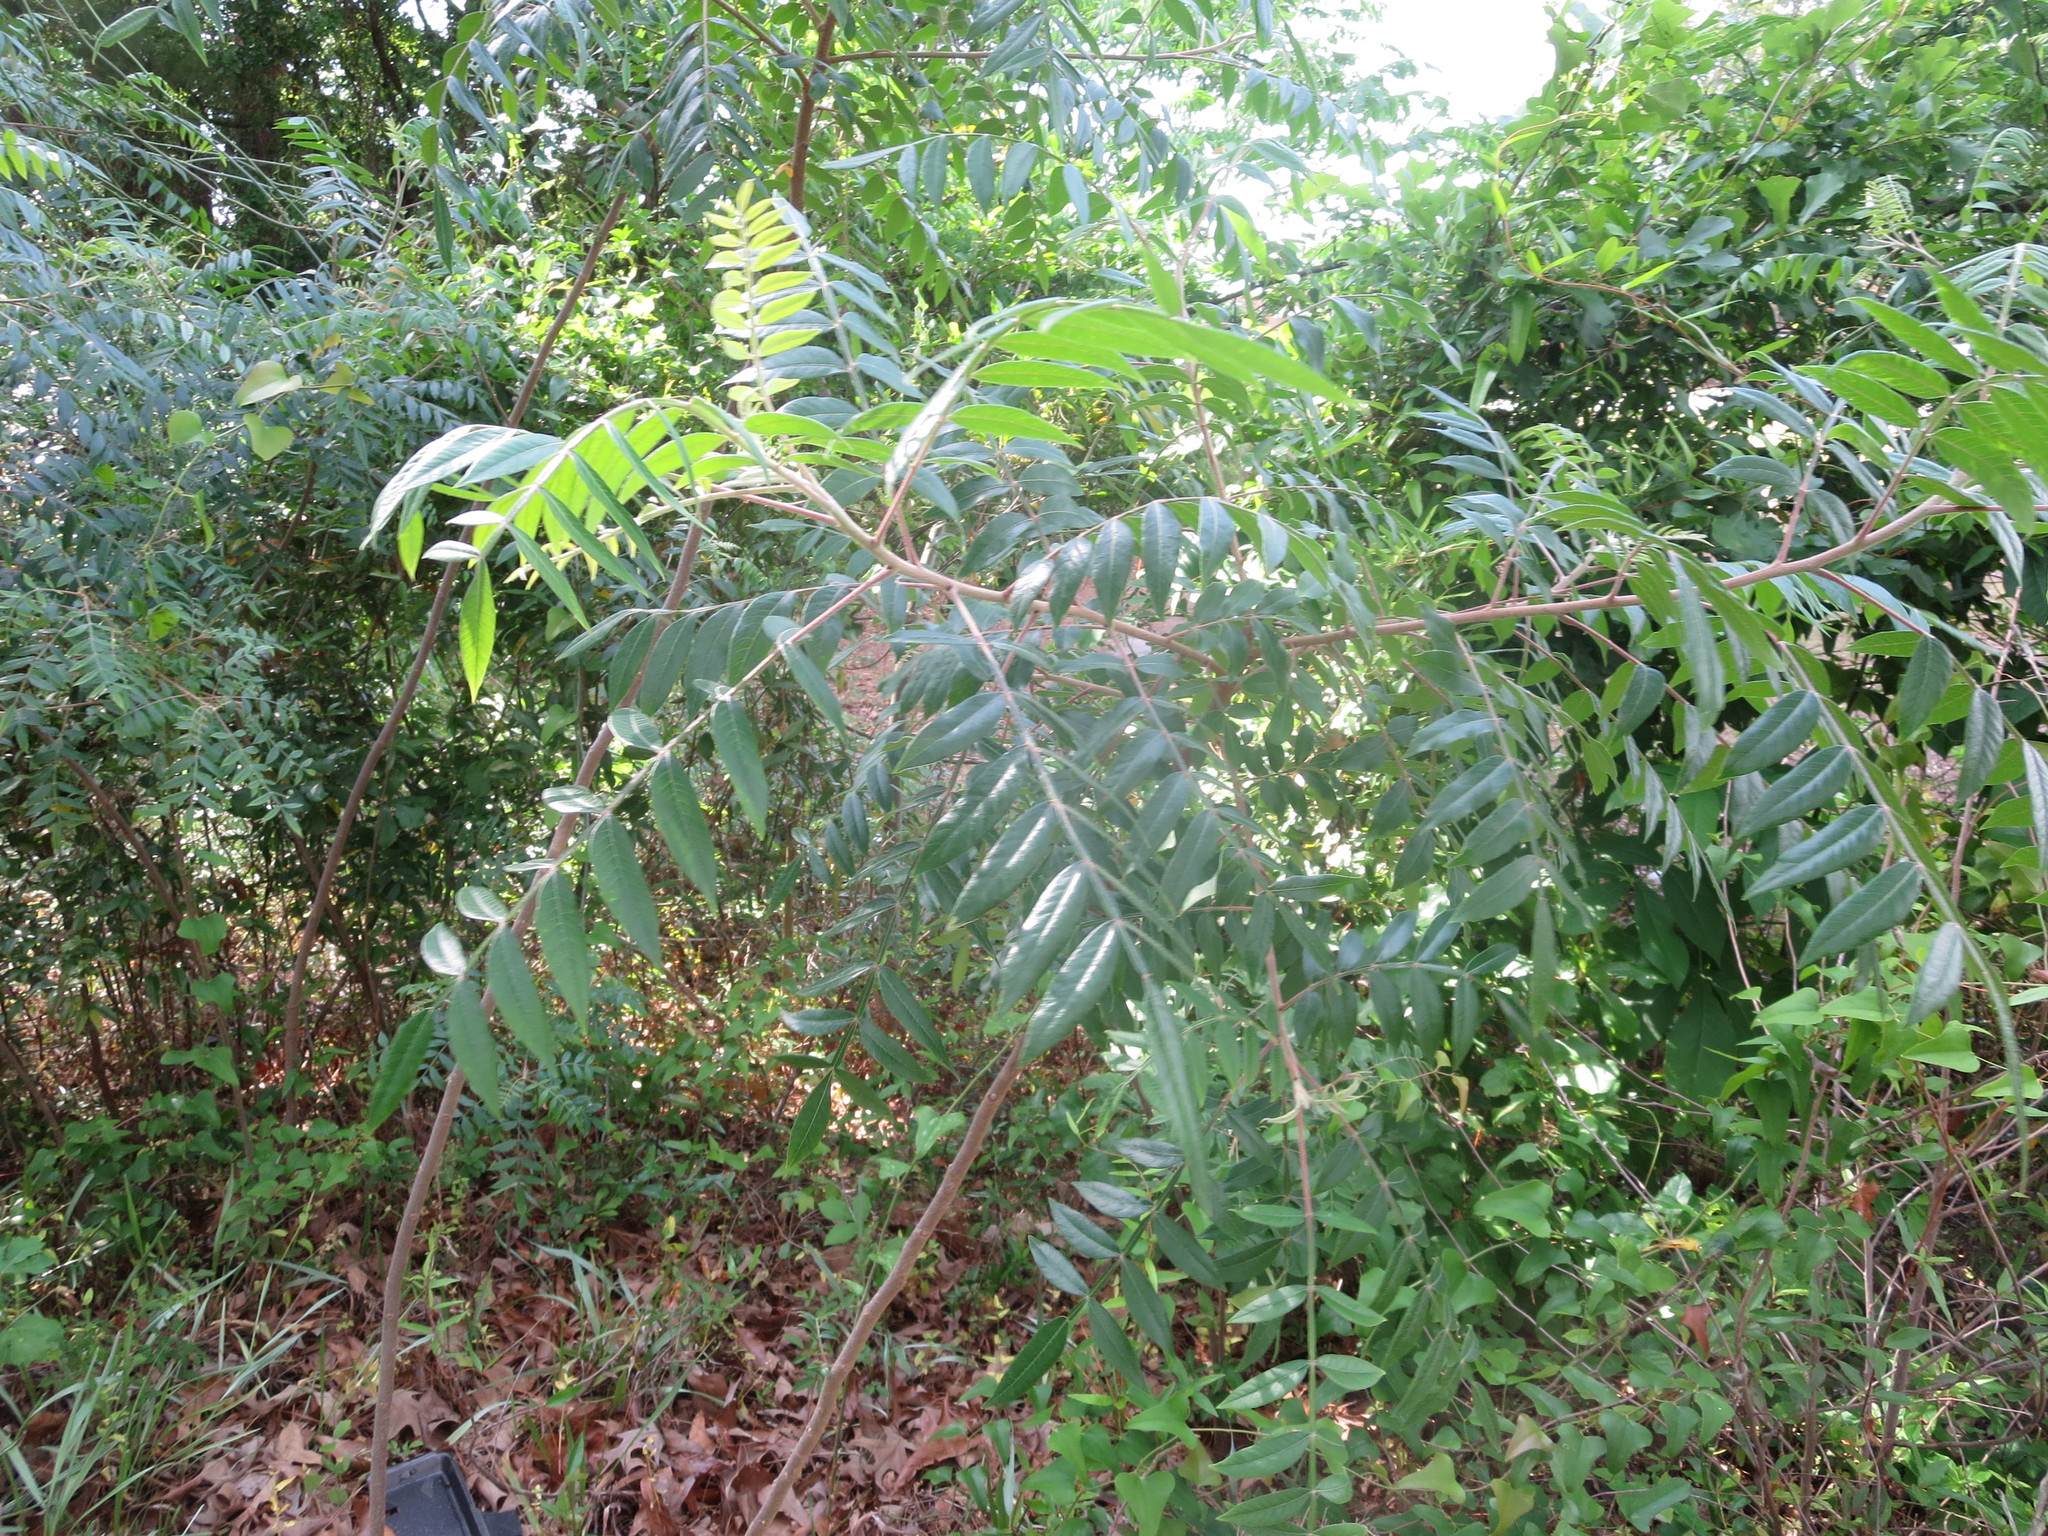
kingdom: Plantae
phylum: Tracheophyta
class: Magnoliopsida
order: Sapindales
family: Anacardiaceae
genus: Rhus
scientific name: Rhus copallina
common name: Shining sumac
